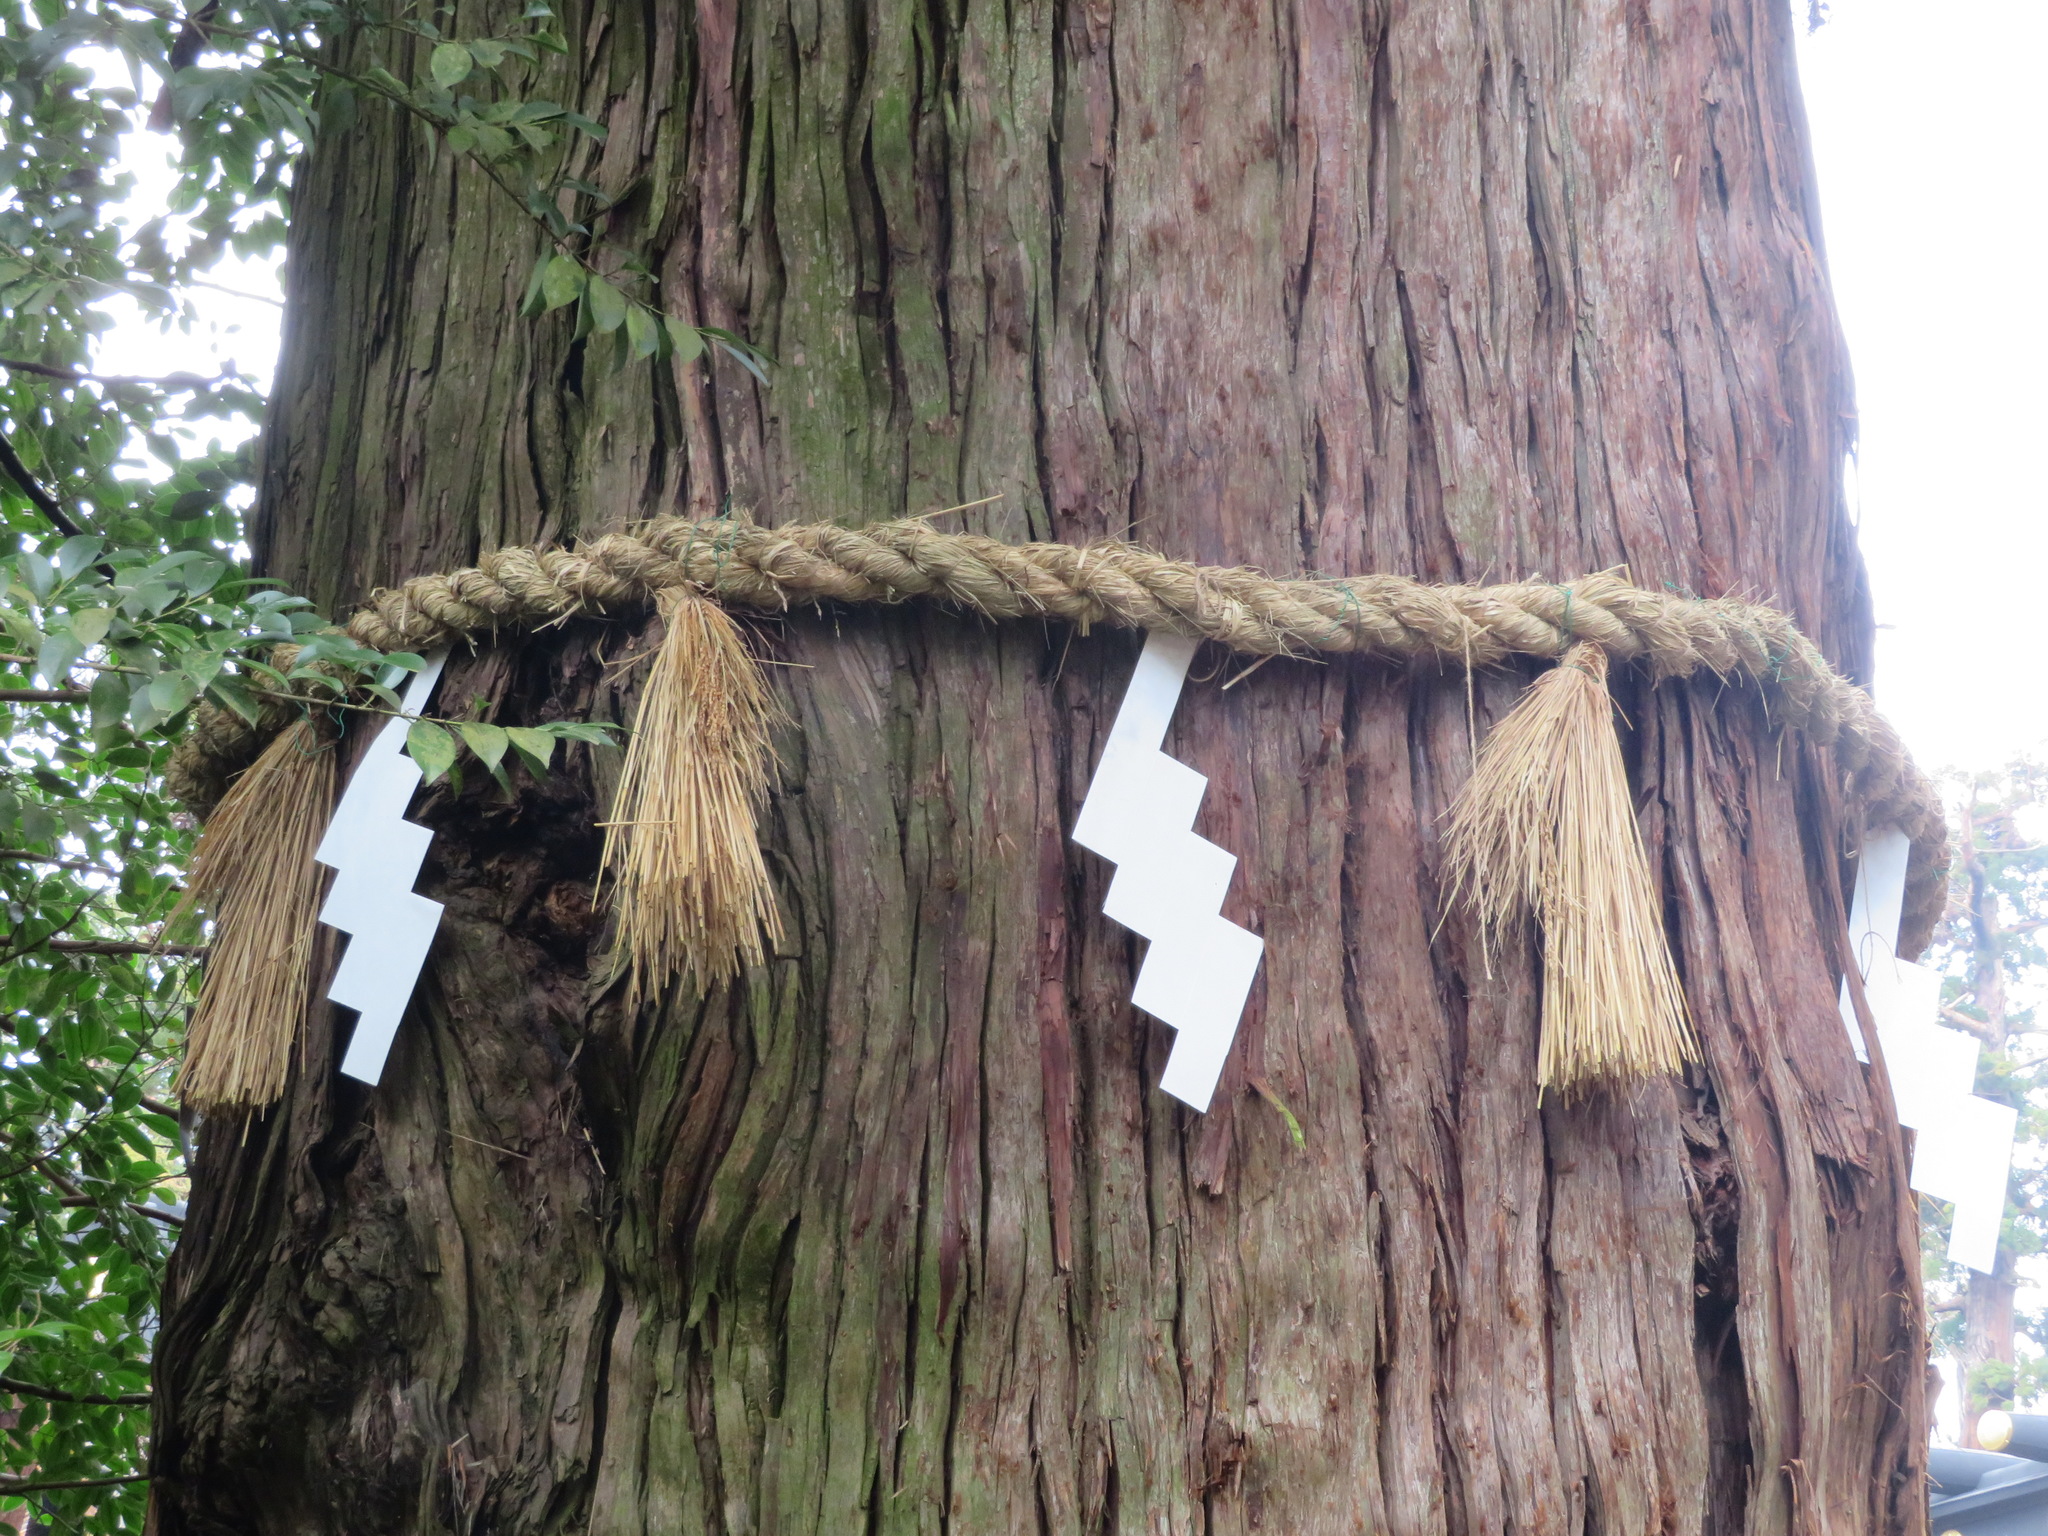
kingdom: Plantae
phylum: Tracheophyta
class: Pinopsida
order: Pinales
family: Cupressaceae
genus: Cryptomeria
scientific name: Cryptomeria japonica
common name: Japanese cedar
